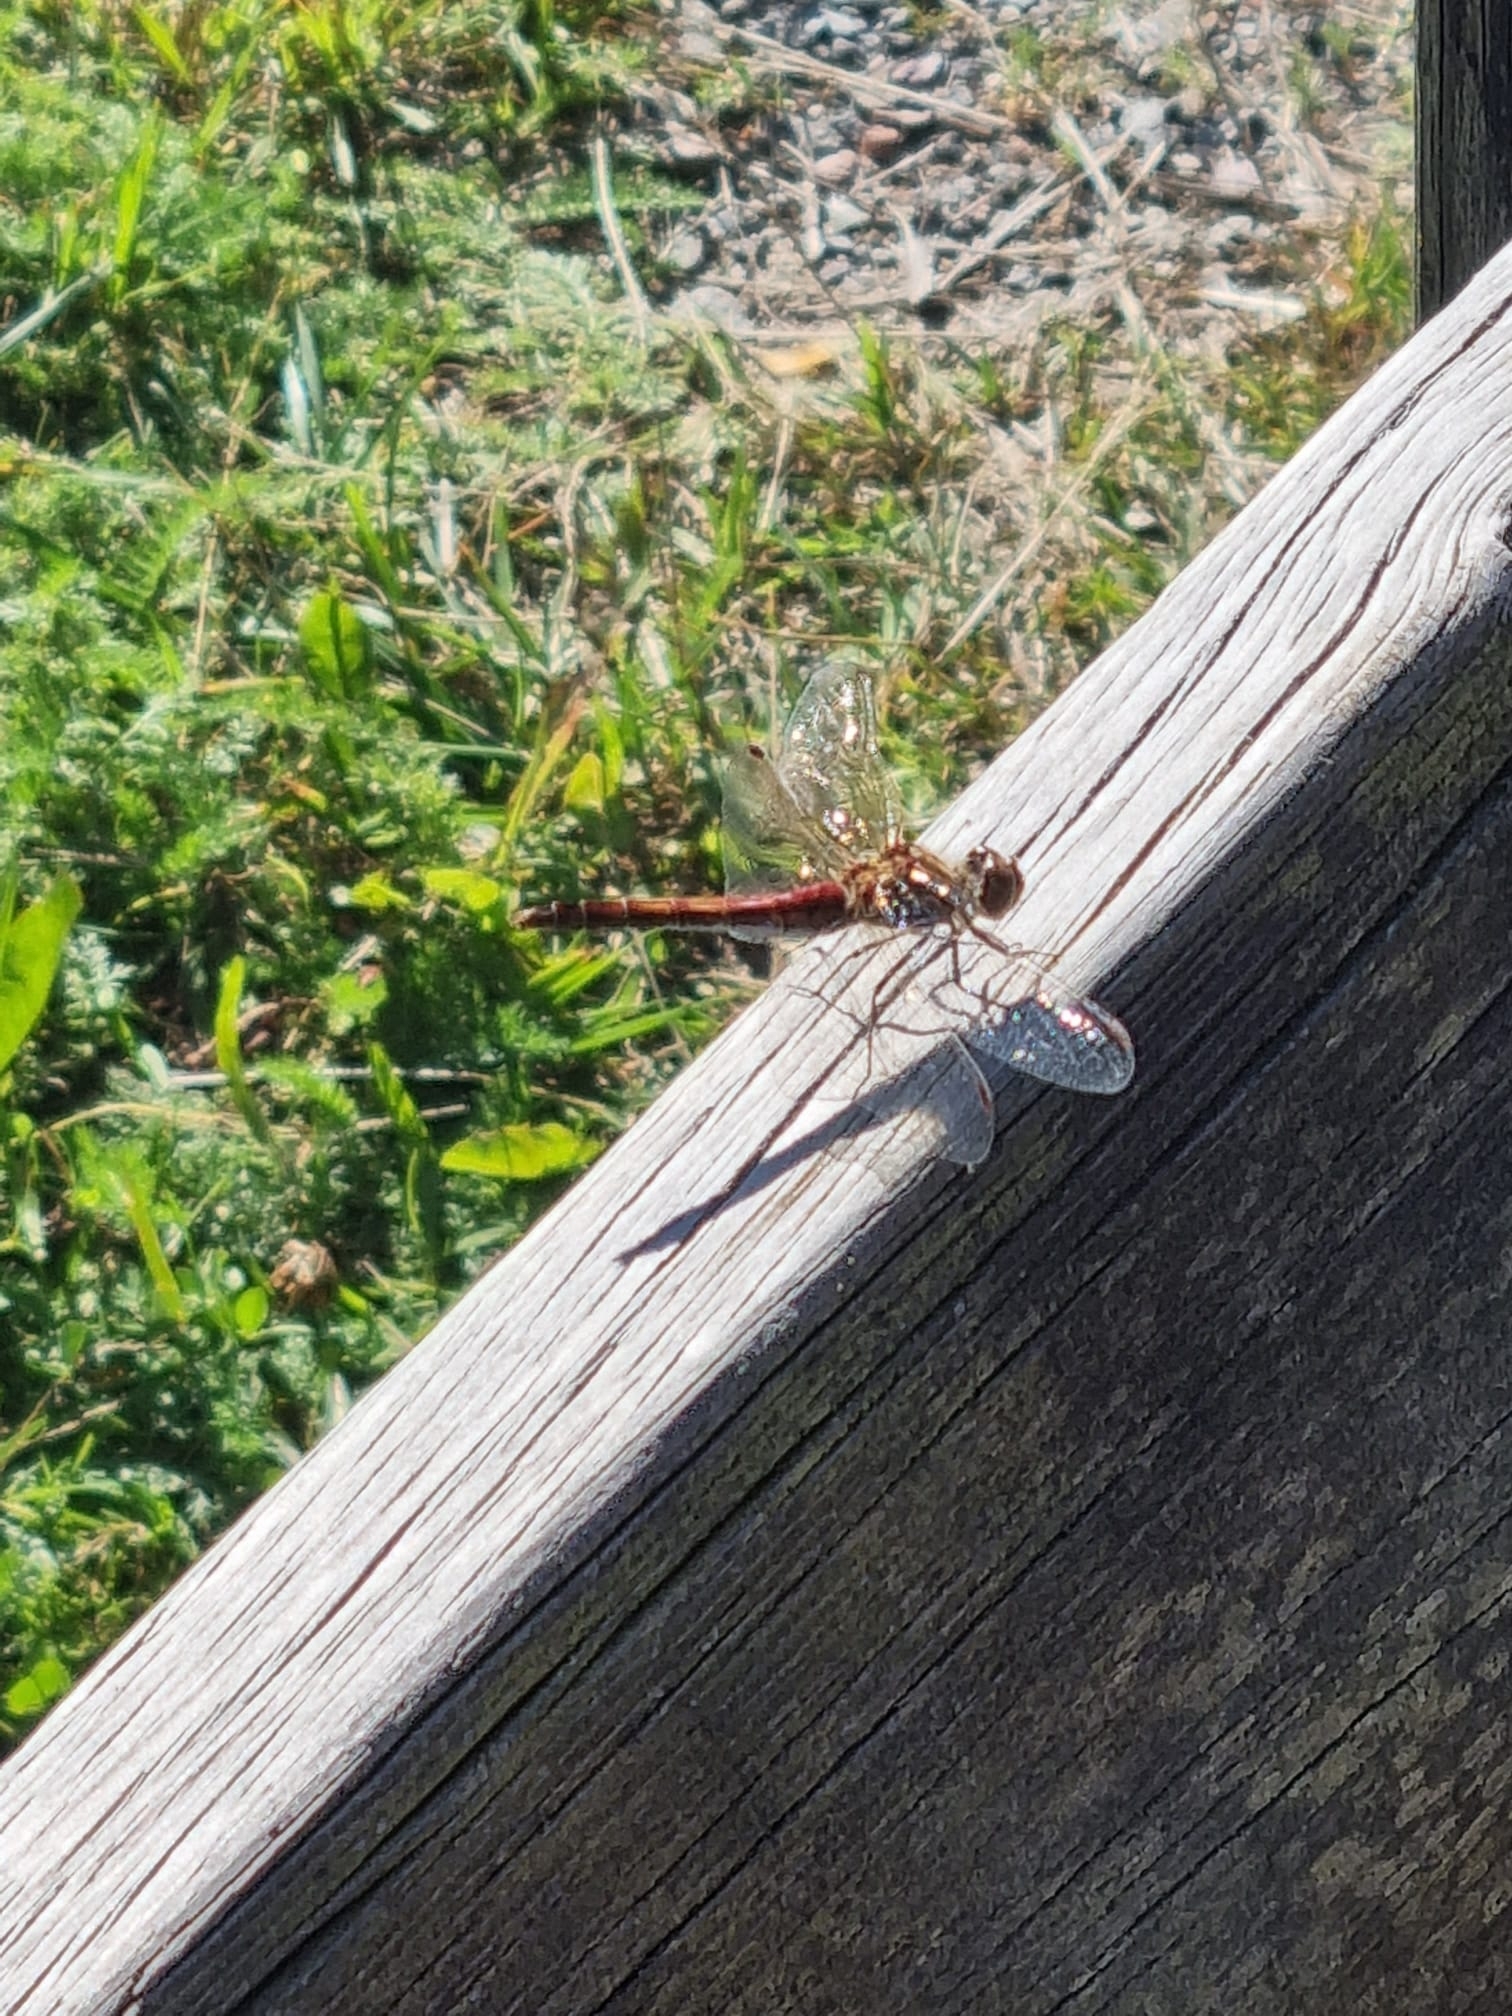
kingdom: Animalia
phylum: Arthropoda
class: Insecta
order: Odonata
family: Libellulidae
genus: Sympetrum
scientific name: Sympetrum vulgatum
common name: Vagrant darter
